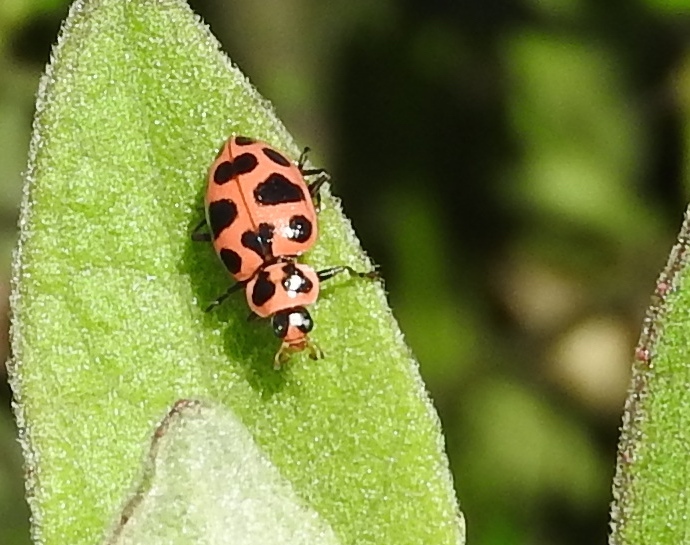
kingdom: Animalia
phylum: Arthropoda
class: Insecta
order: Coleoptera
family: Coccinellidae
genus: Coleomegilla
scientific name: Coleomegilla maculata
